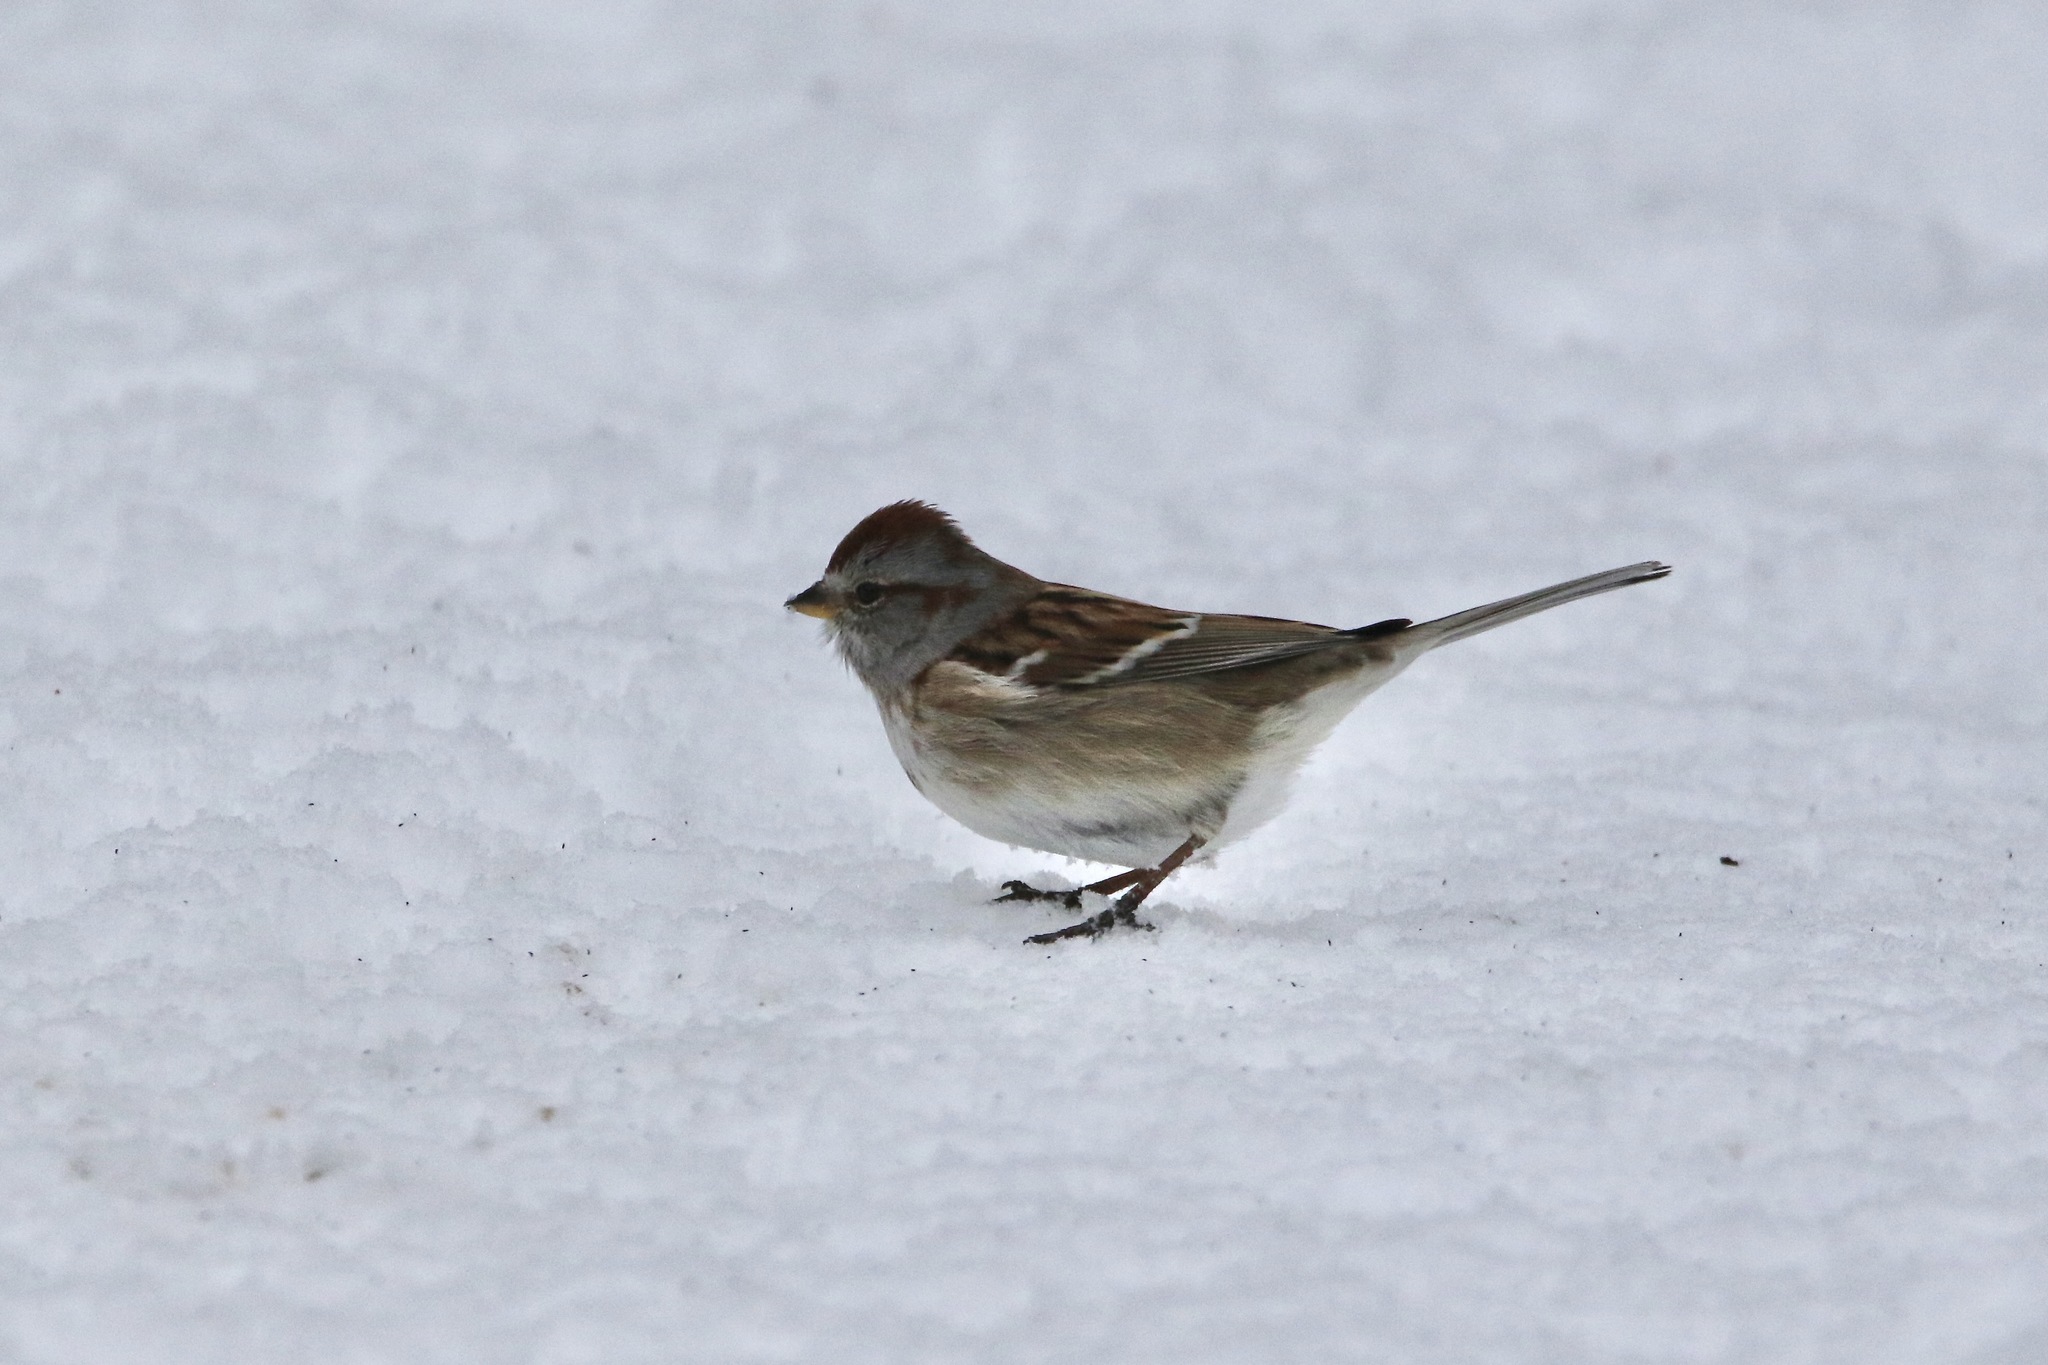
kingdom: Animalia
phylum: Chordata
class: Aves
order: Passeriformes
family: Passerellidae
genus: Spizelloides
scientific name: Spizelloides arborea
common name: American tree sparrow
